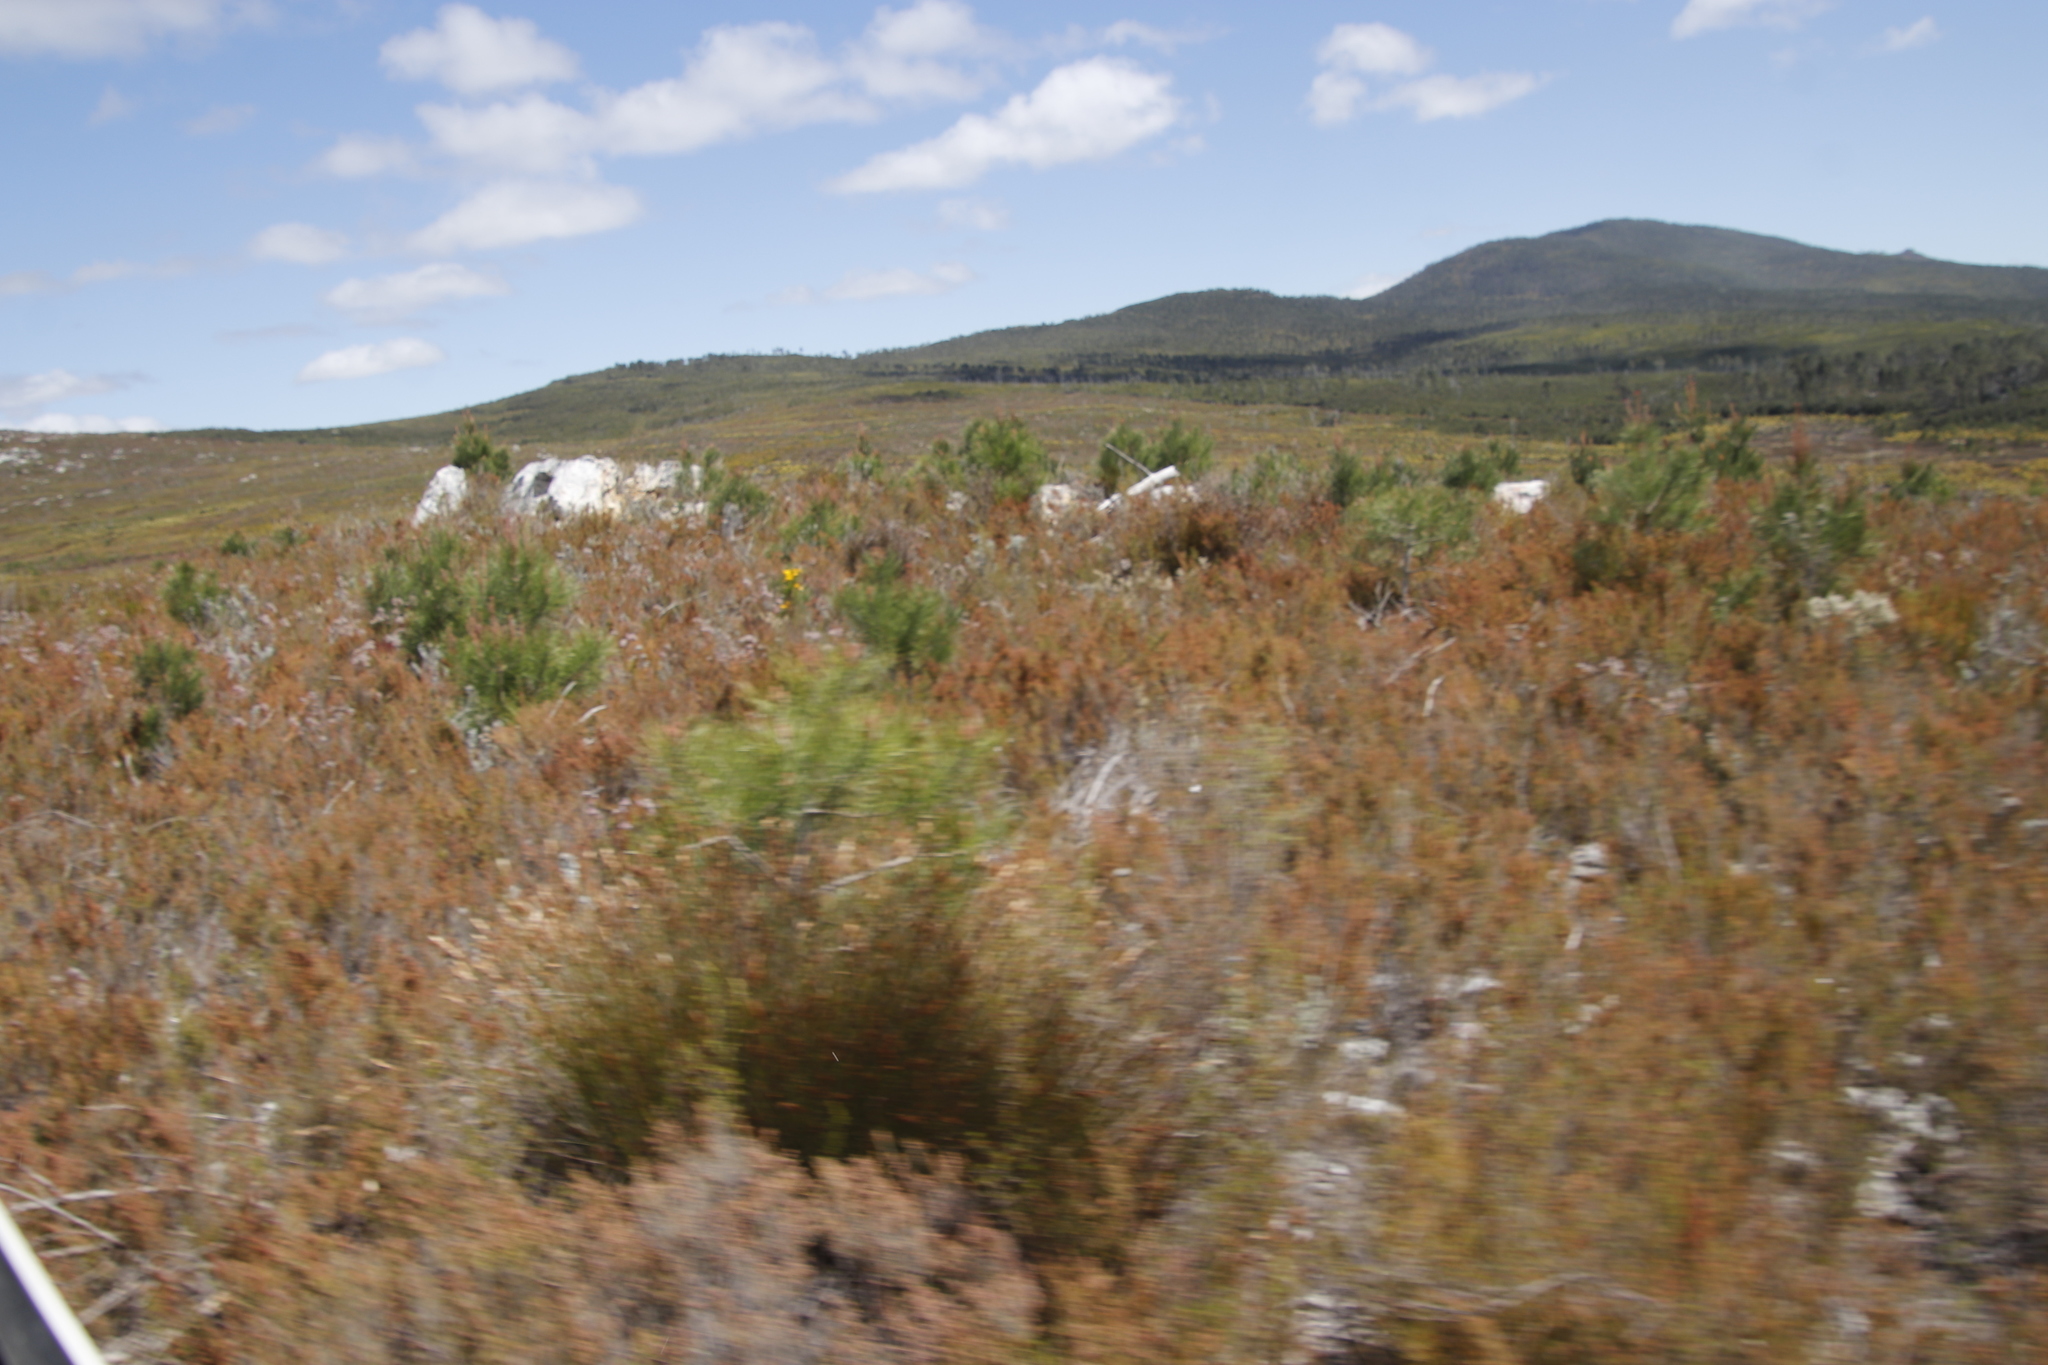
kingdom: Plantae
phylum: Tracheophyta
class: Pinopsida
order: Pinales
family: Pinaceae
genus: Pinus
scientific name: Pinus pinaster
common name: Maritime pine
